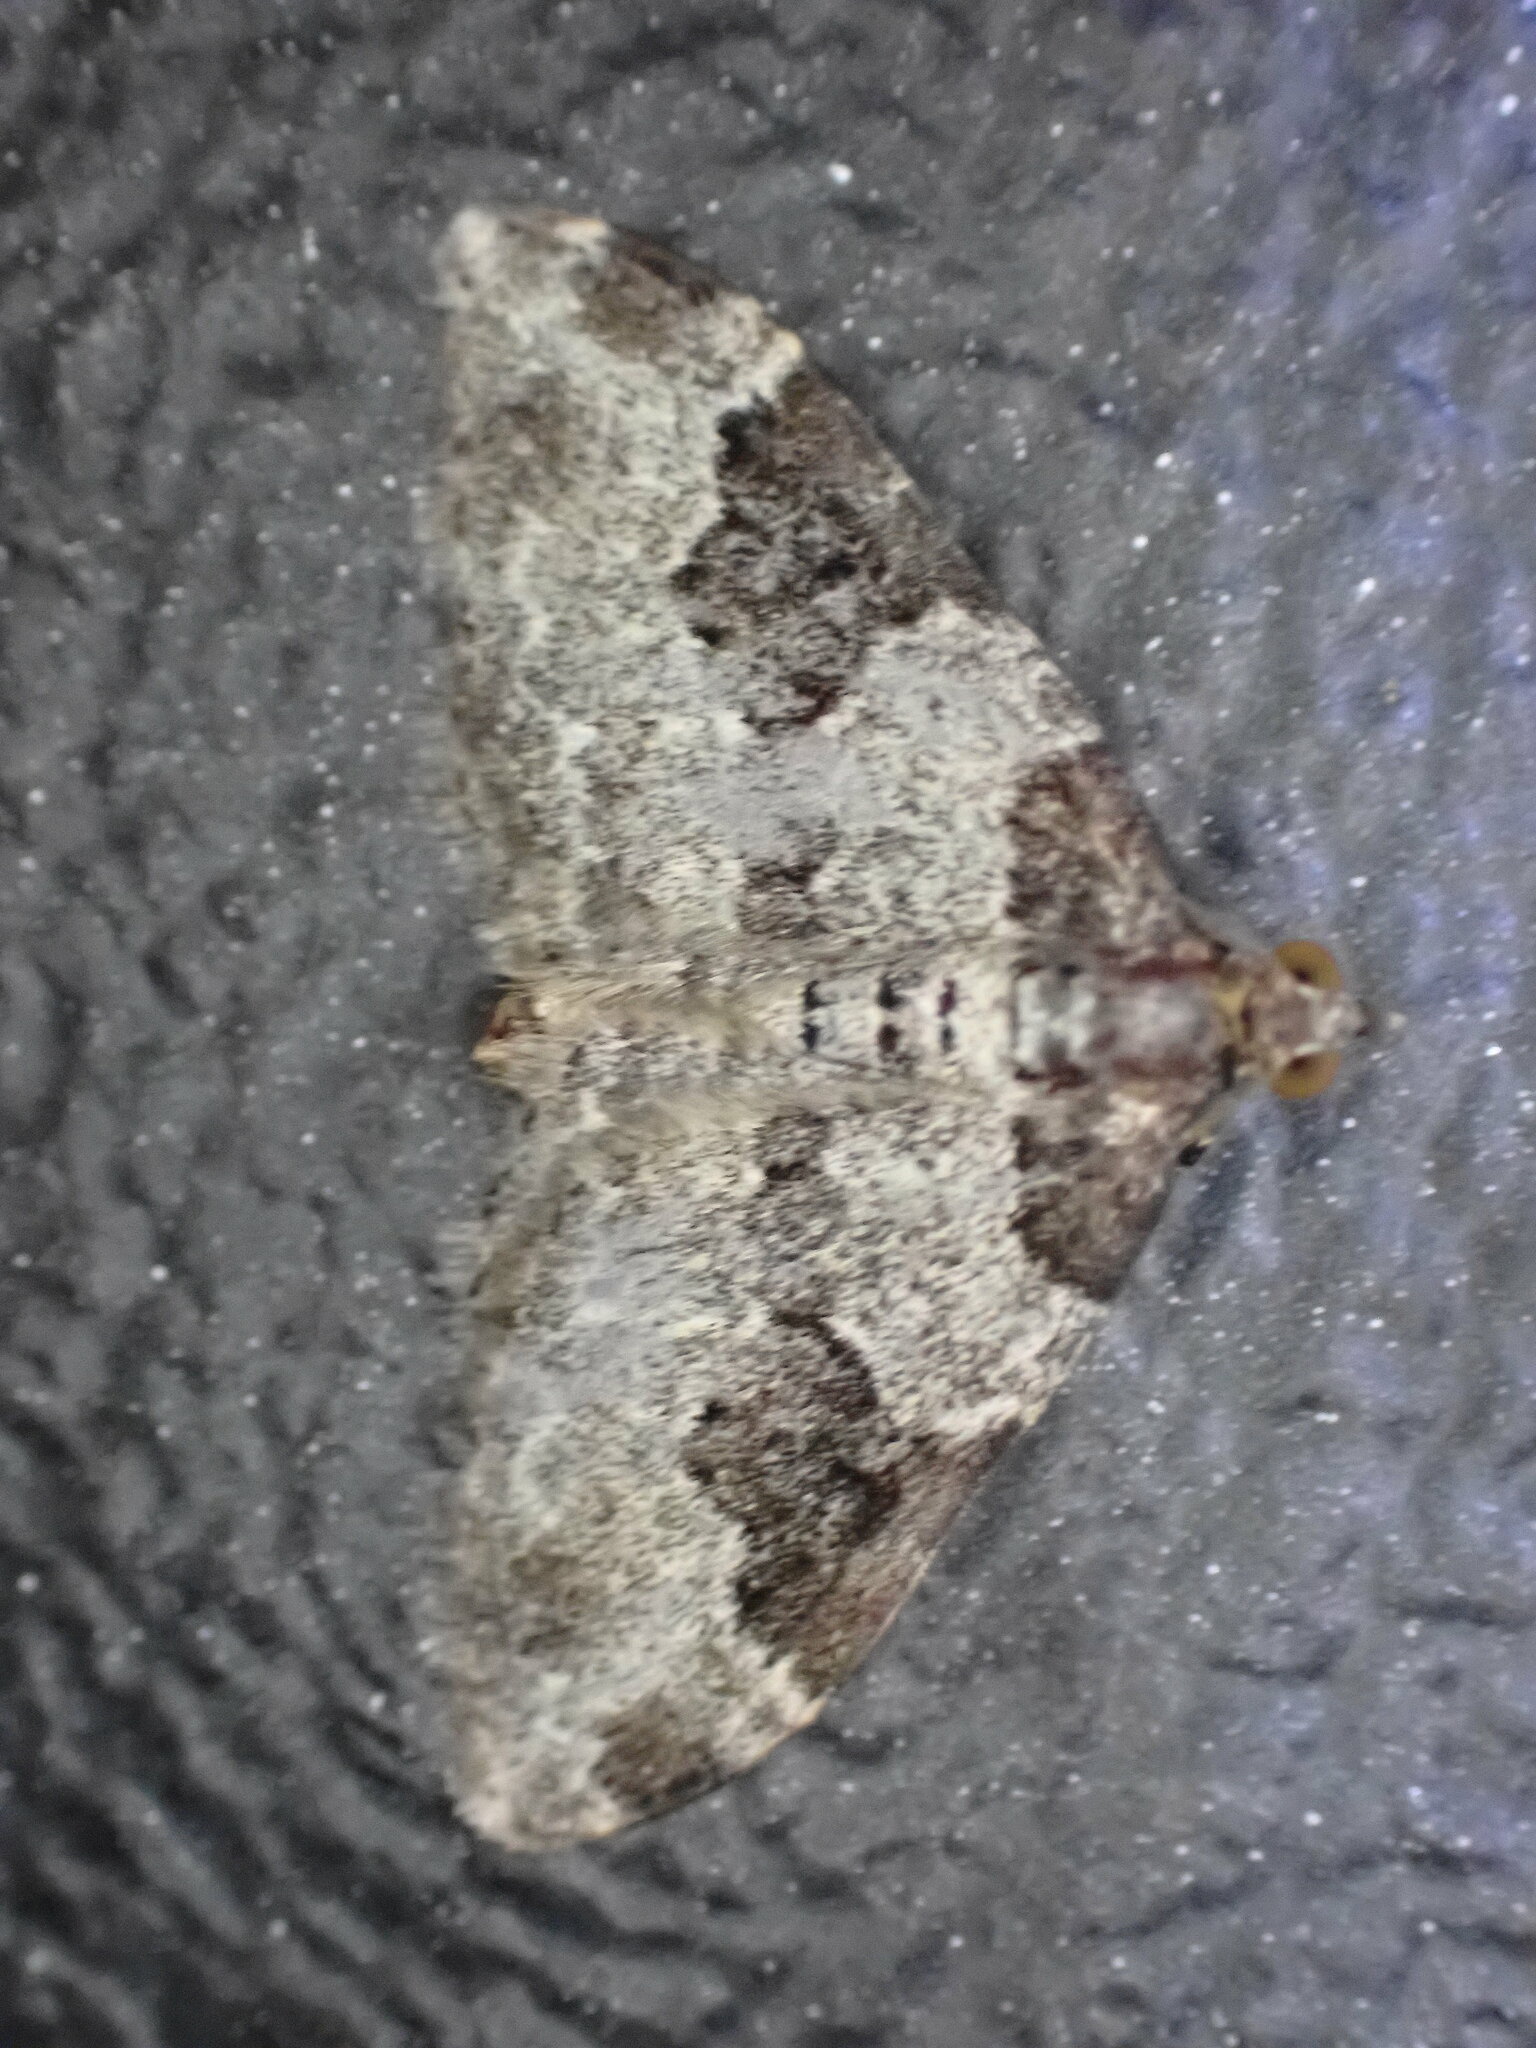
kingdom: Animalia
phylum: Arthropoda
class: Insecta
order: Lepidoptera
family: Geometridae
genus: Xanthorhoe
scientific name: Xanthorhoe fluctuata
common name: Garden carpet
